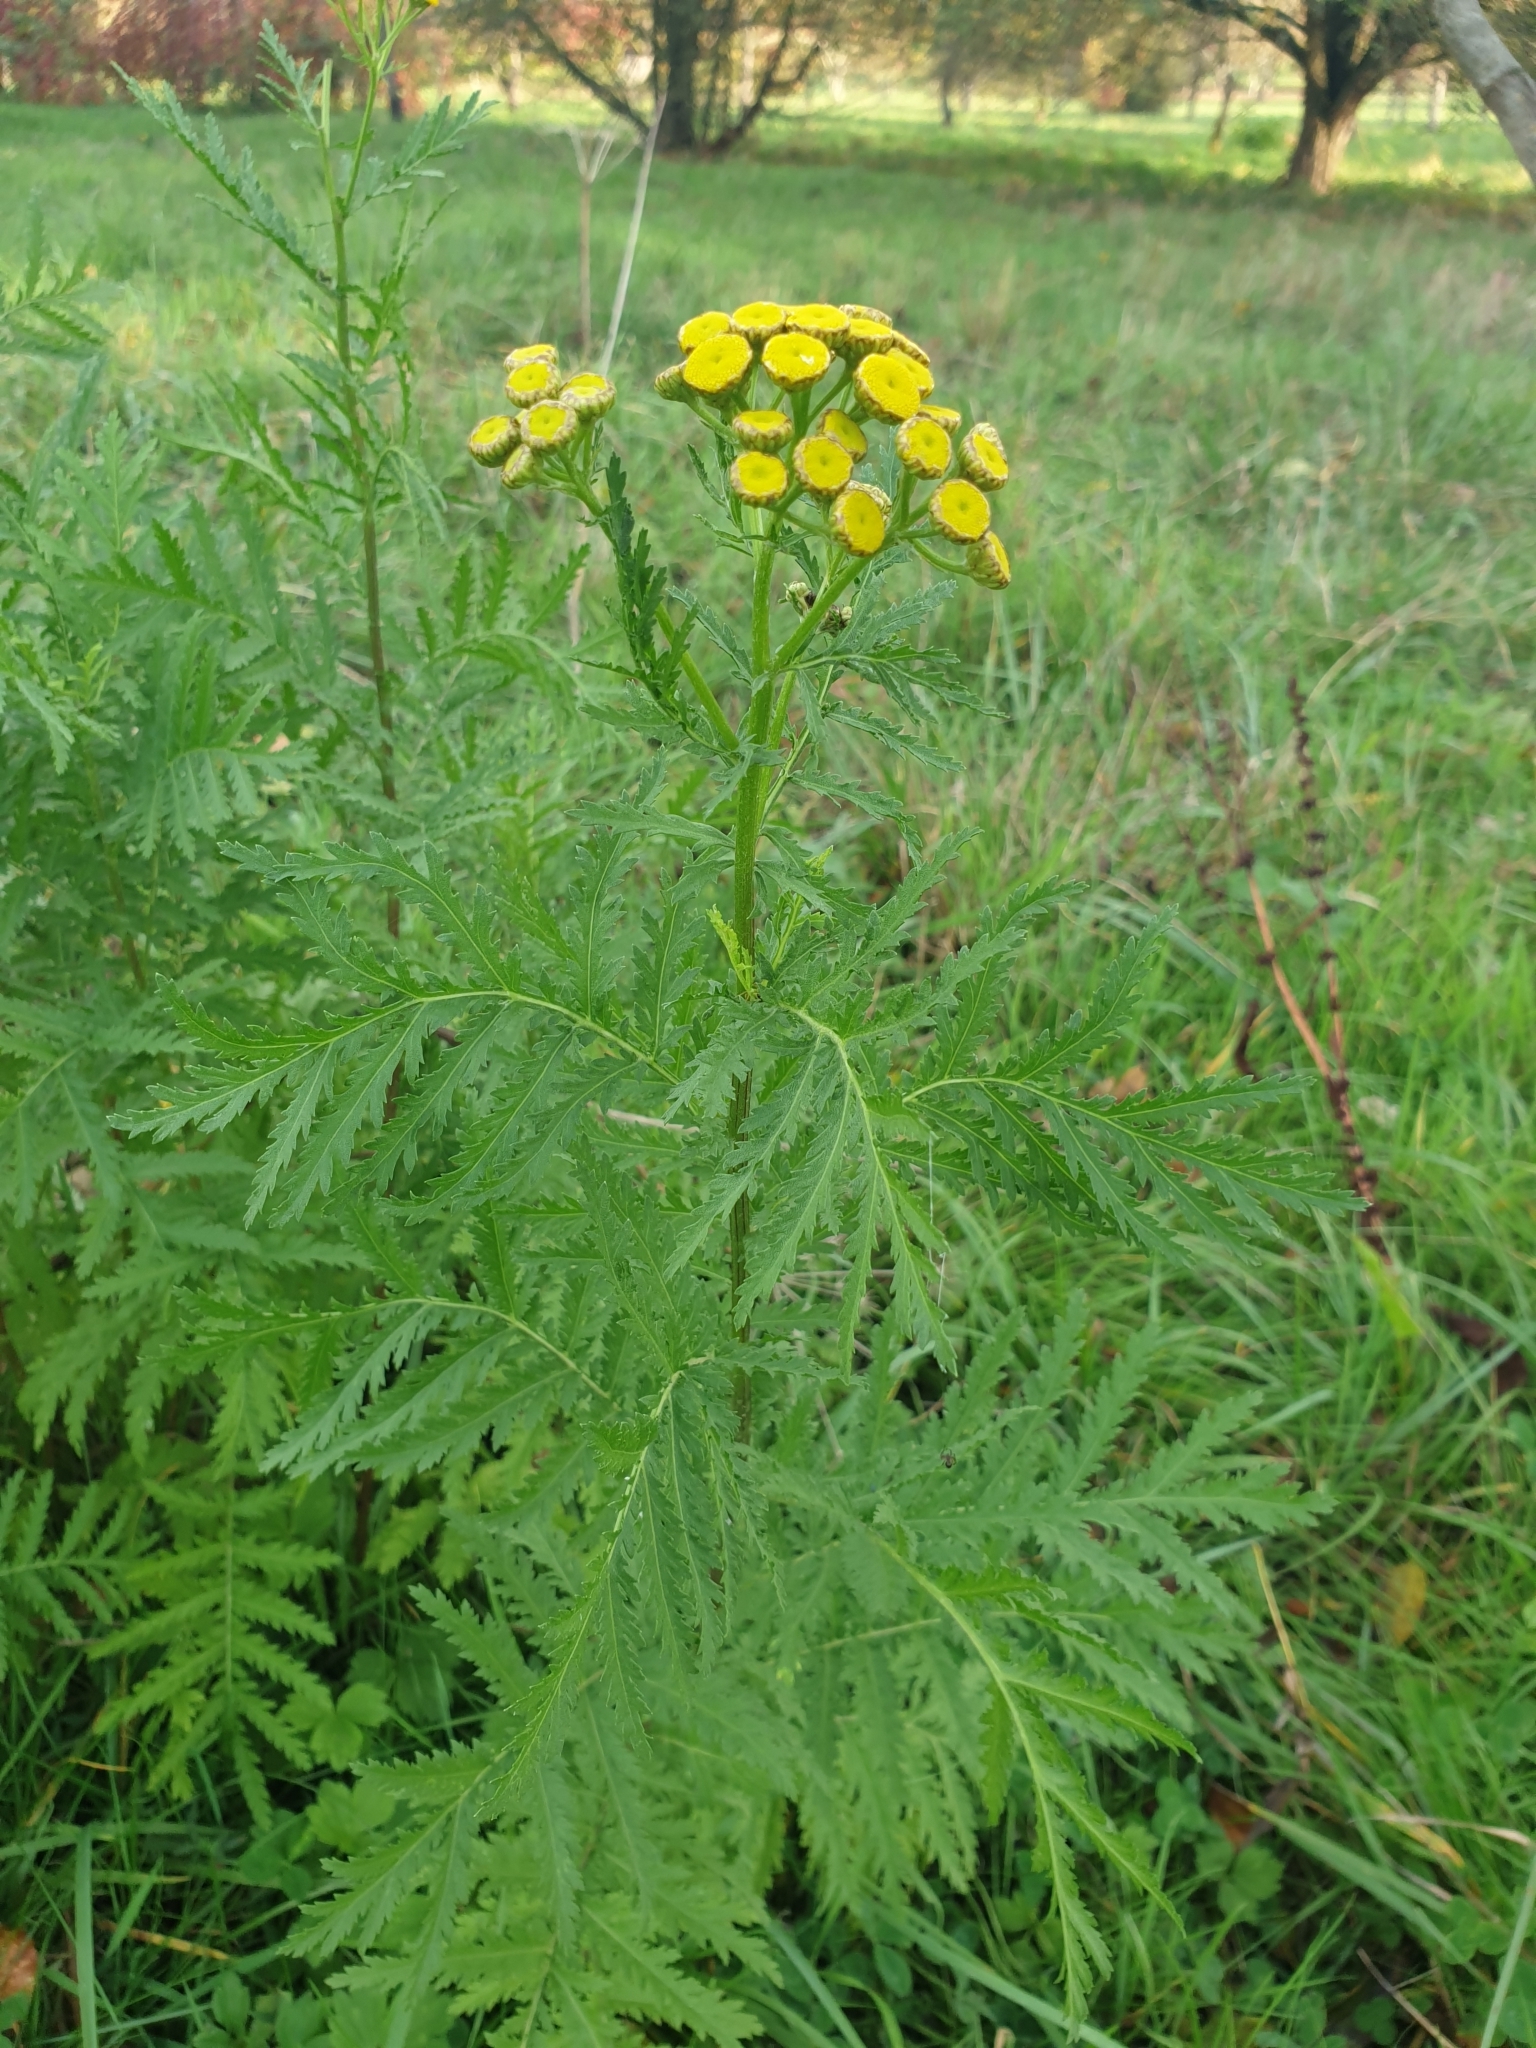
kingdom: Plantae
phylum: Tracheophyta
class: Magnoliopsida
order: Asterales
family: Asteraceae
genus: Tanacetum
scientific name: Tanacetum vulgare
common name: Common tansy
